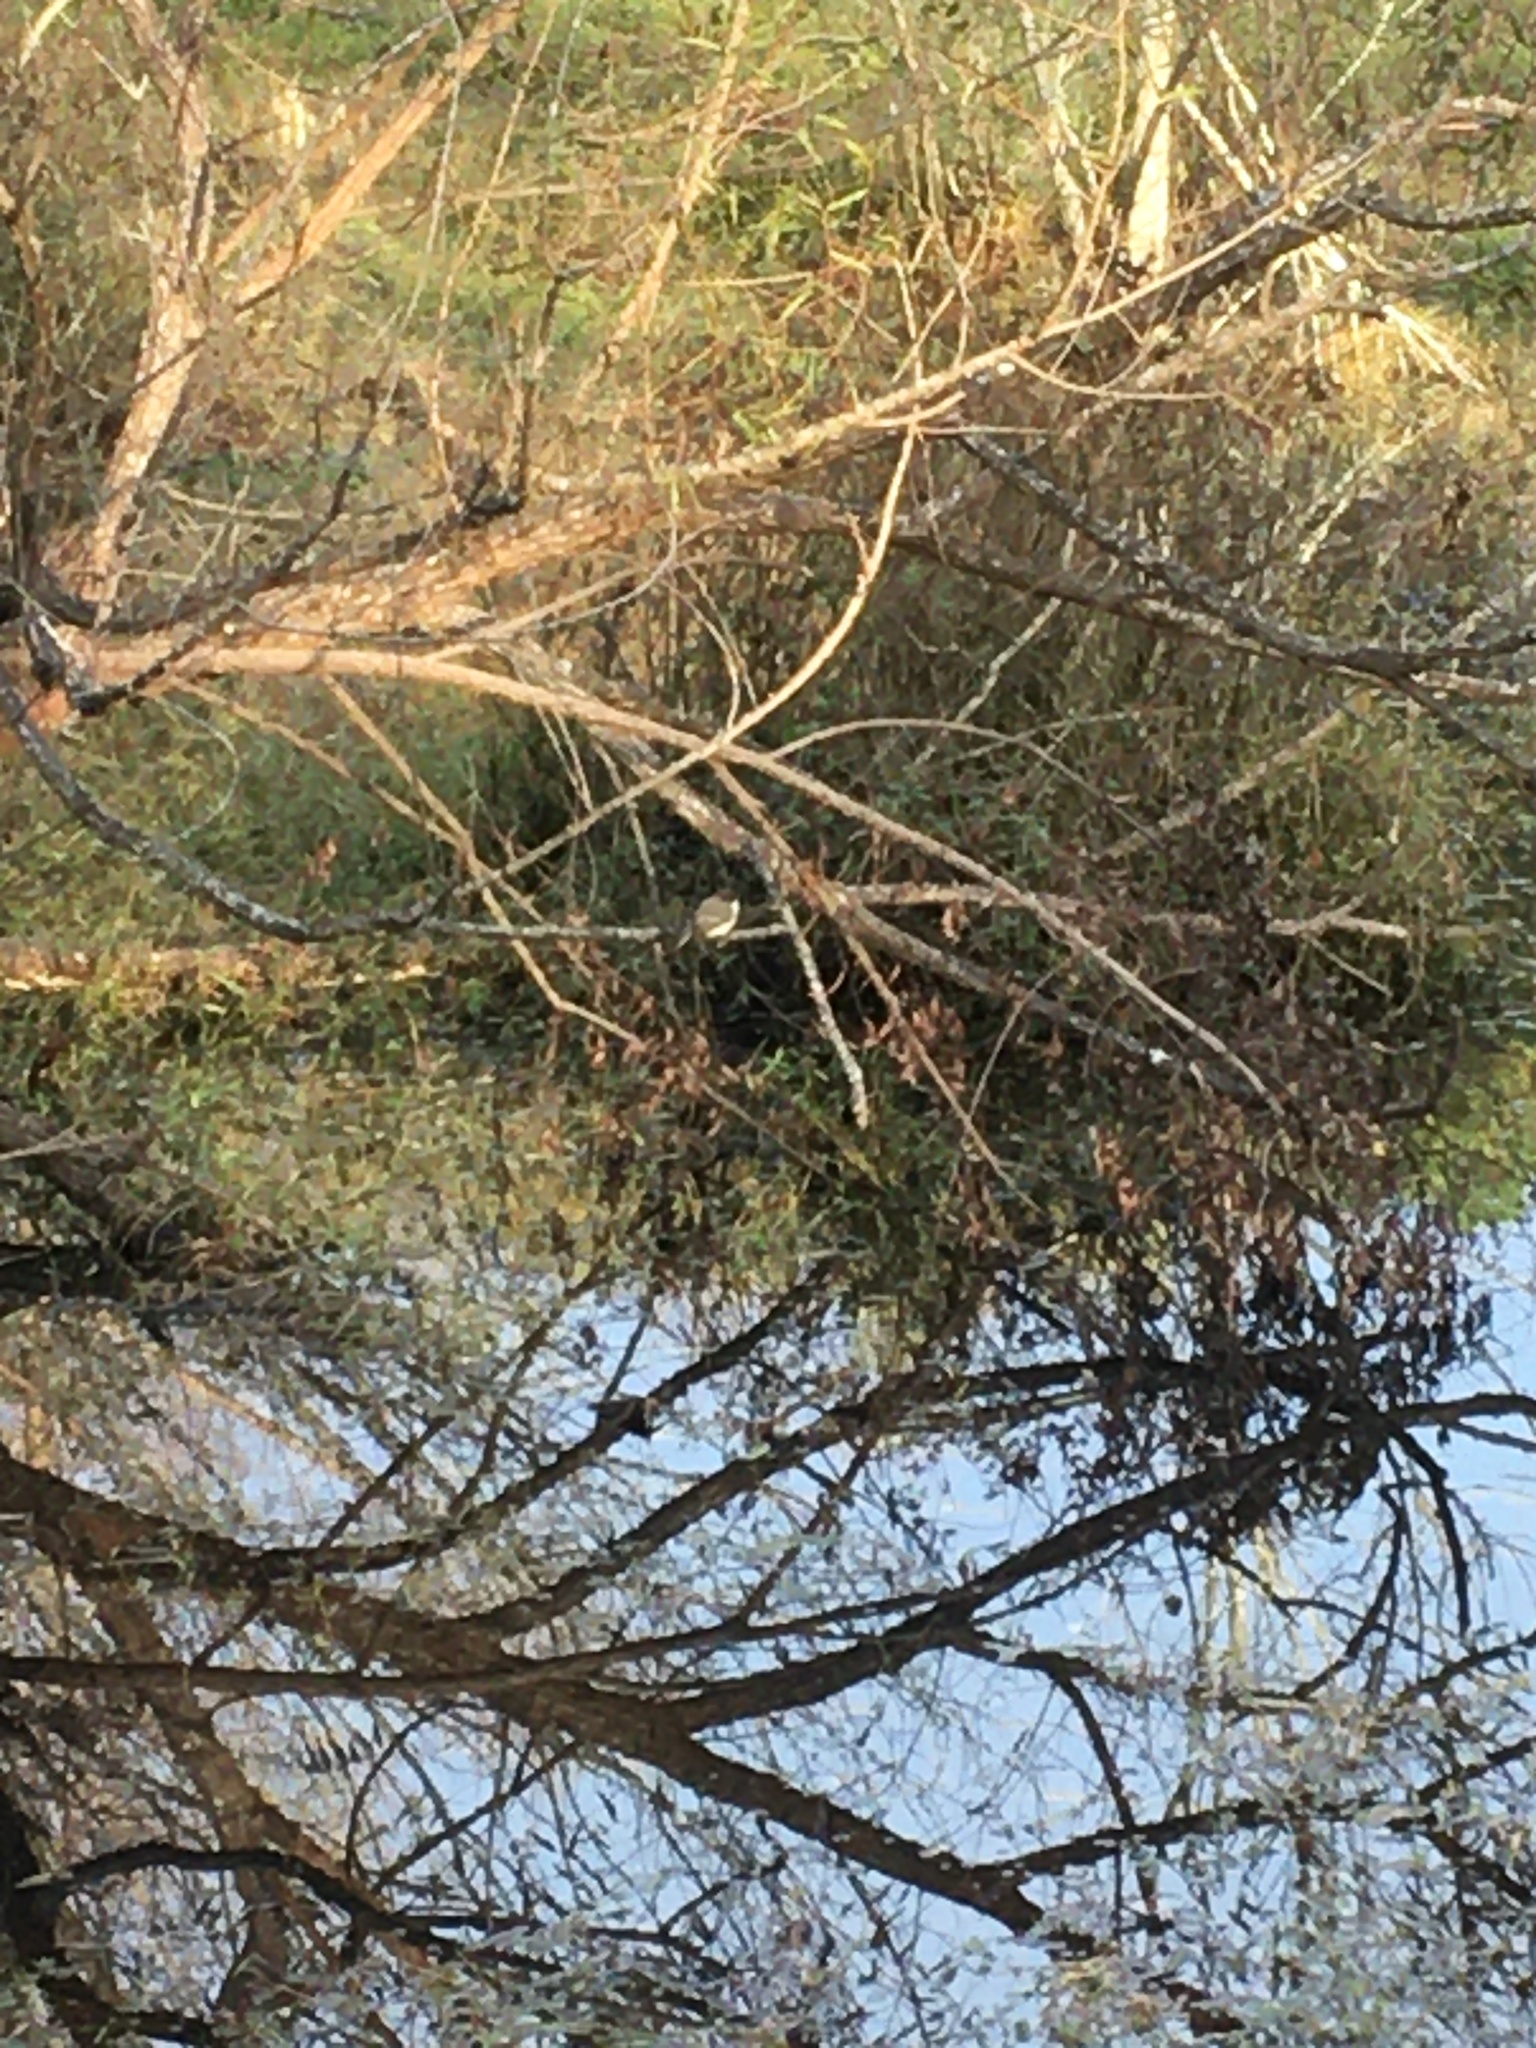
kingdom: Animalia
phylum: Chordata
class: Aves
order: Passeriformes
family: Tyrannidae
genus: Sayornis
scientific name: Sayornis phoebe
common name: Eastern phoebe
